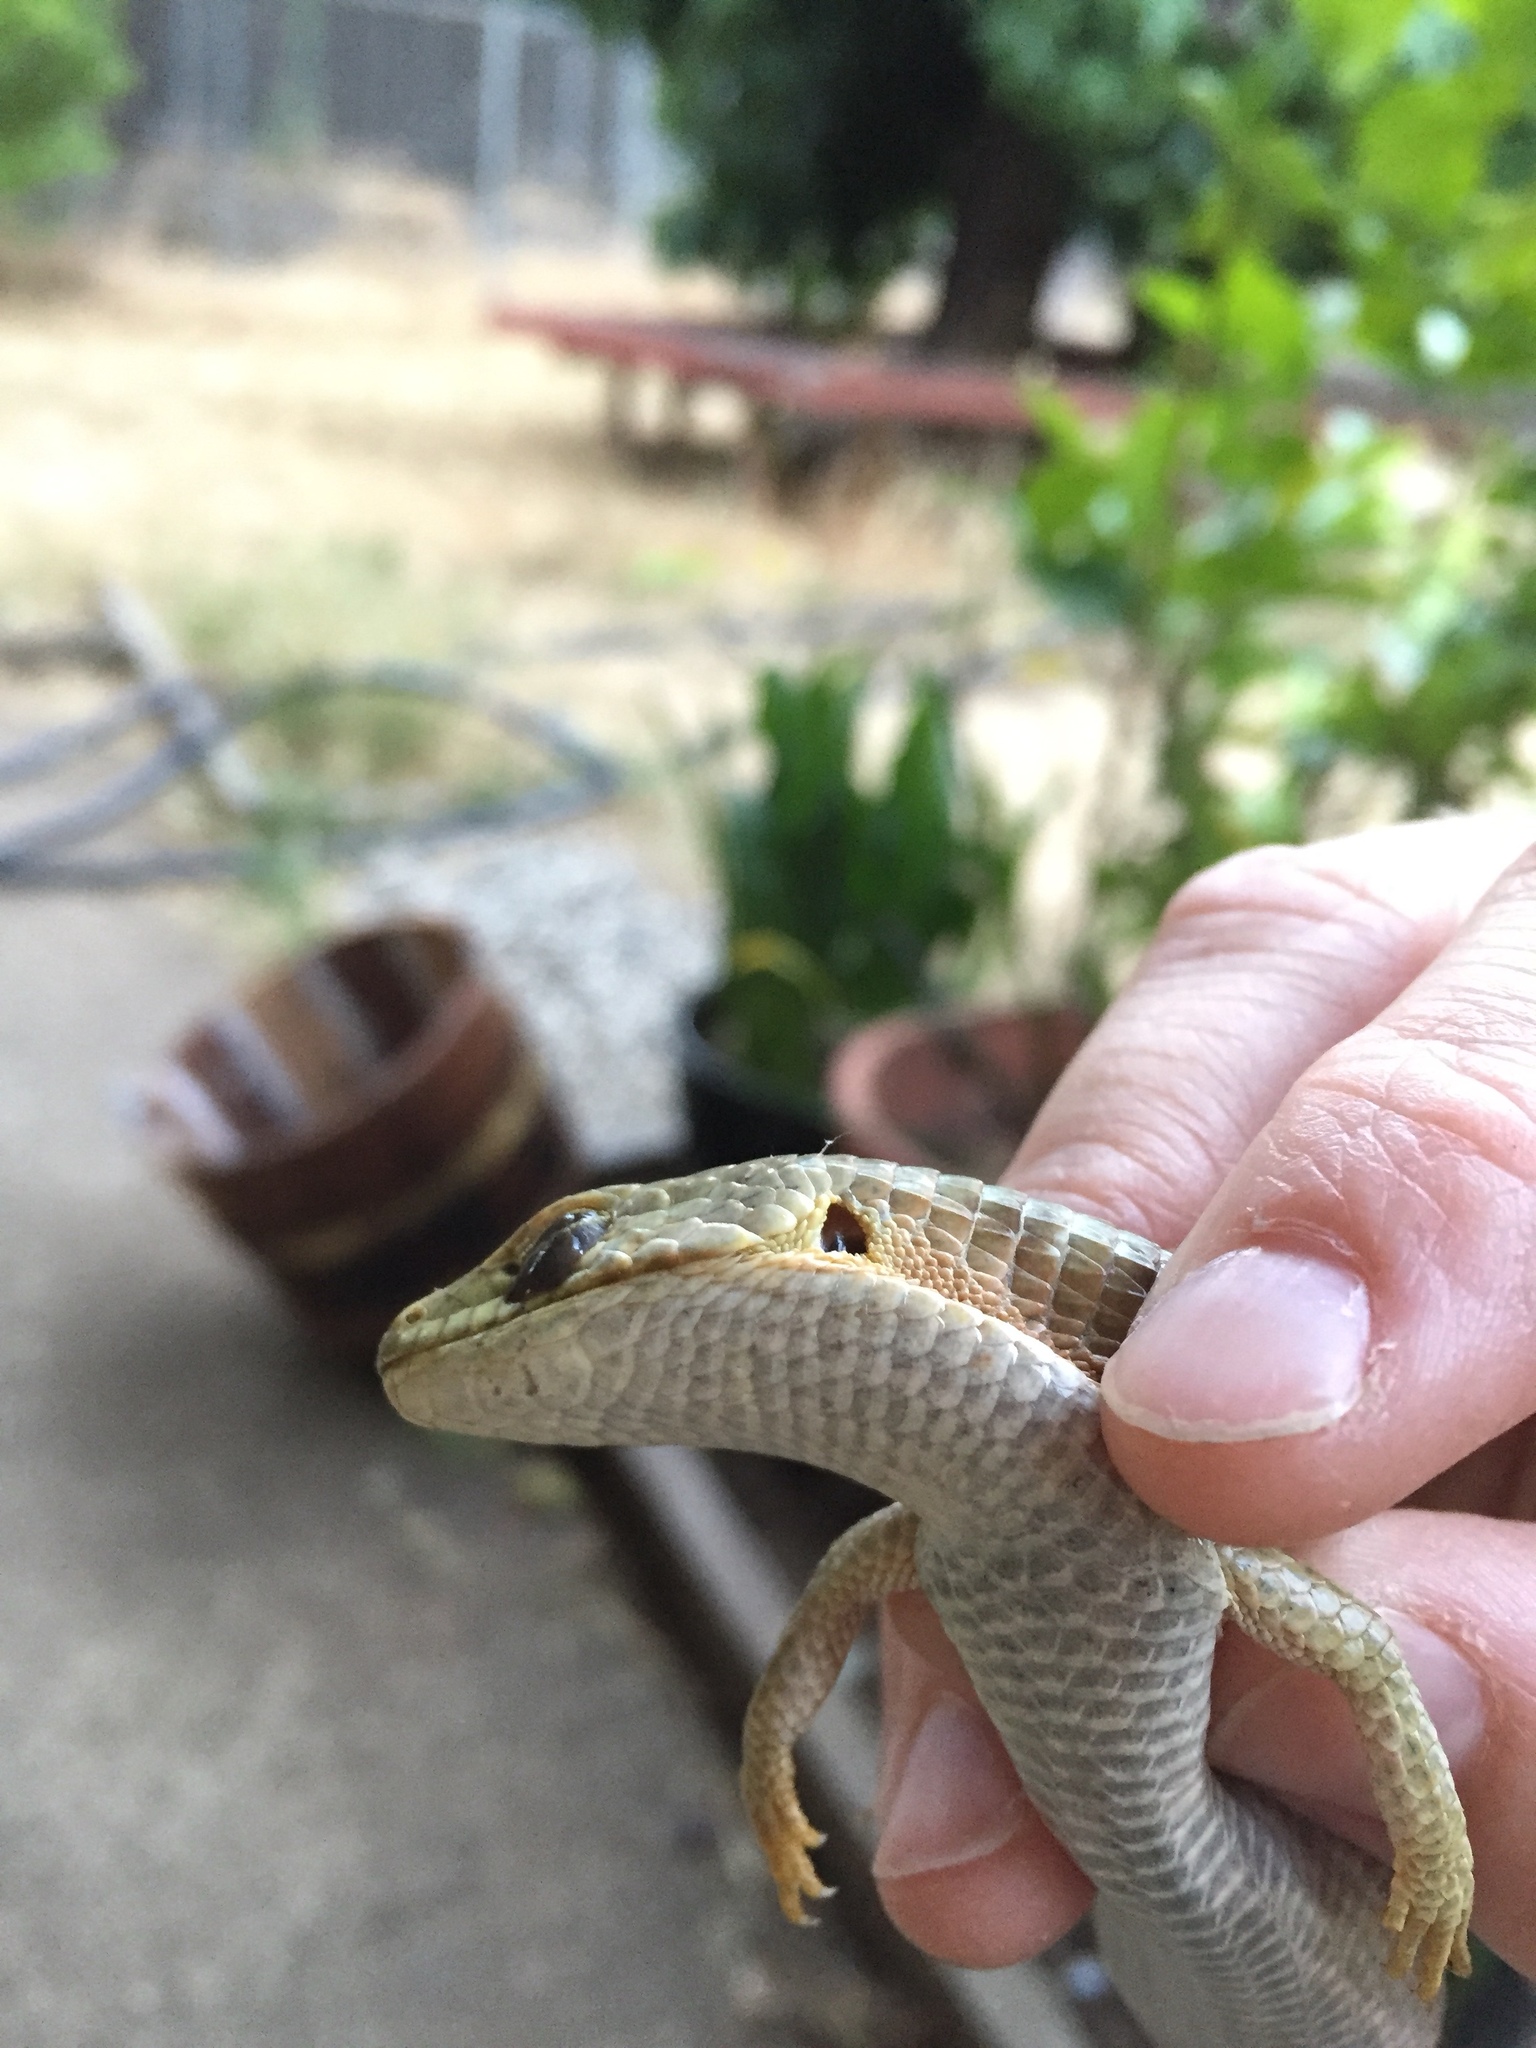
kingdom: Animalia
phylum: Chordata
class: Squamata
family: Anguidae
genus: Elgaria
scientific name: Elgaria multicarinata
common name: Southern alligator lizard
